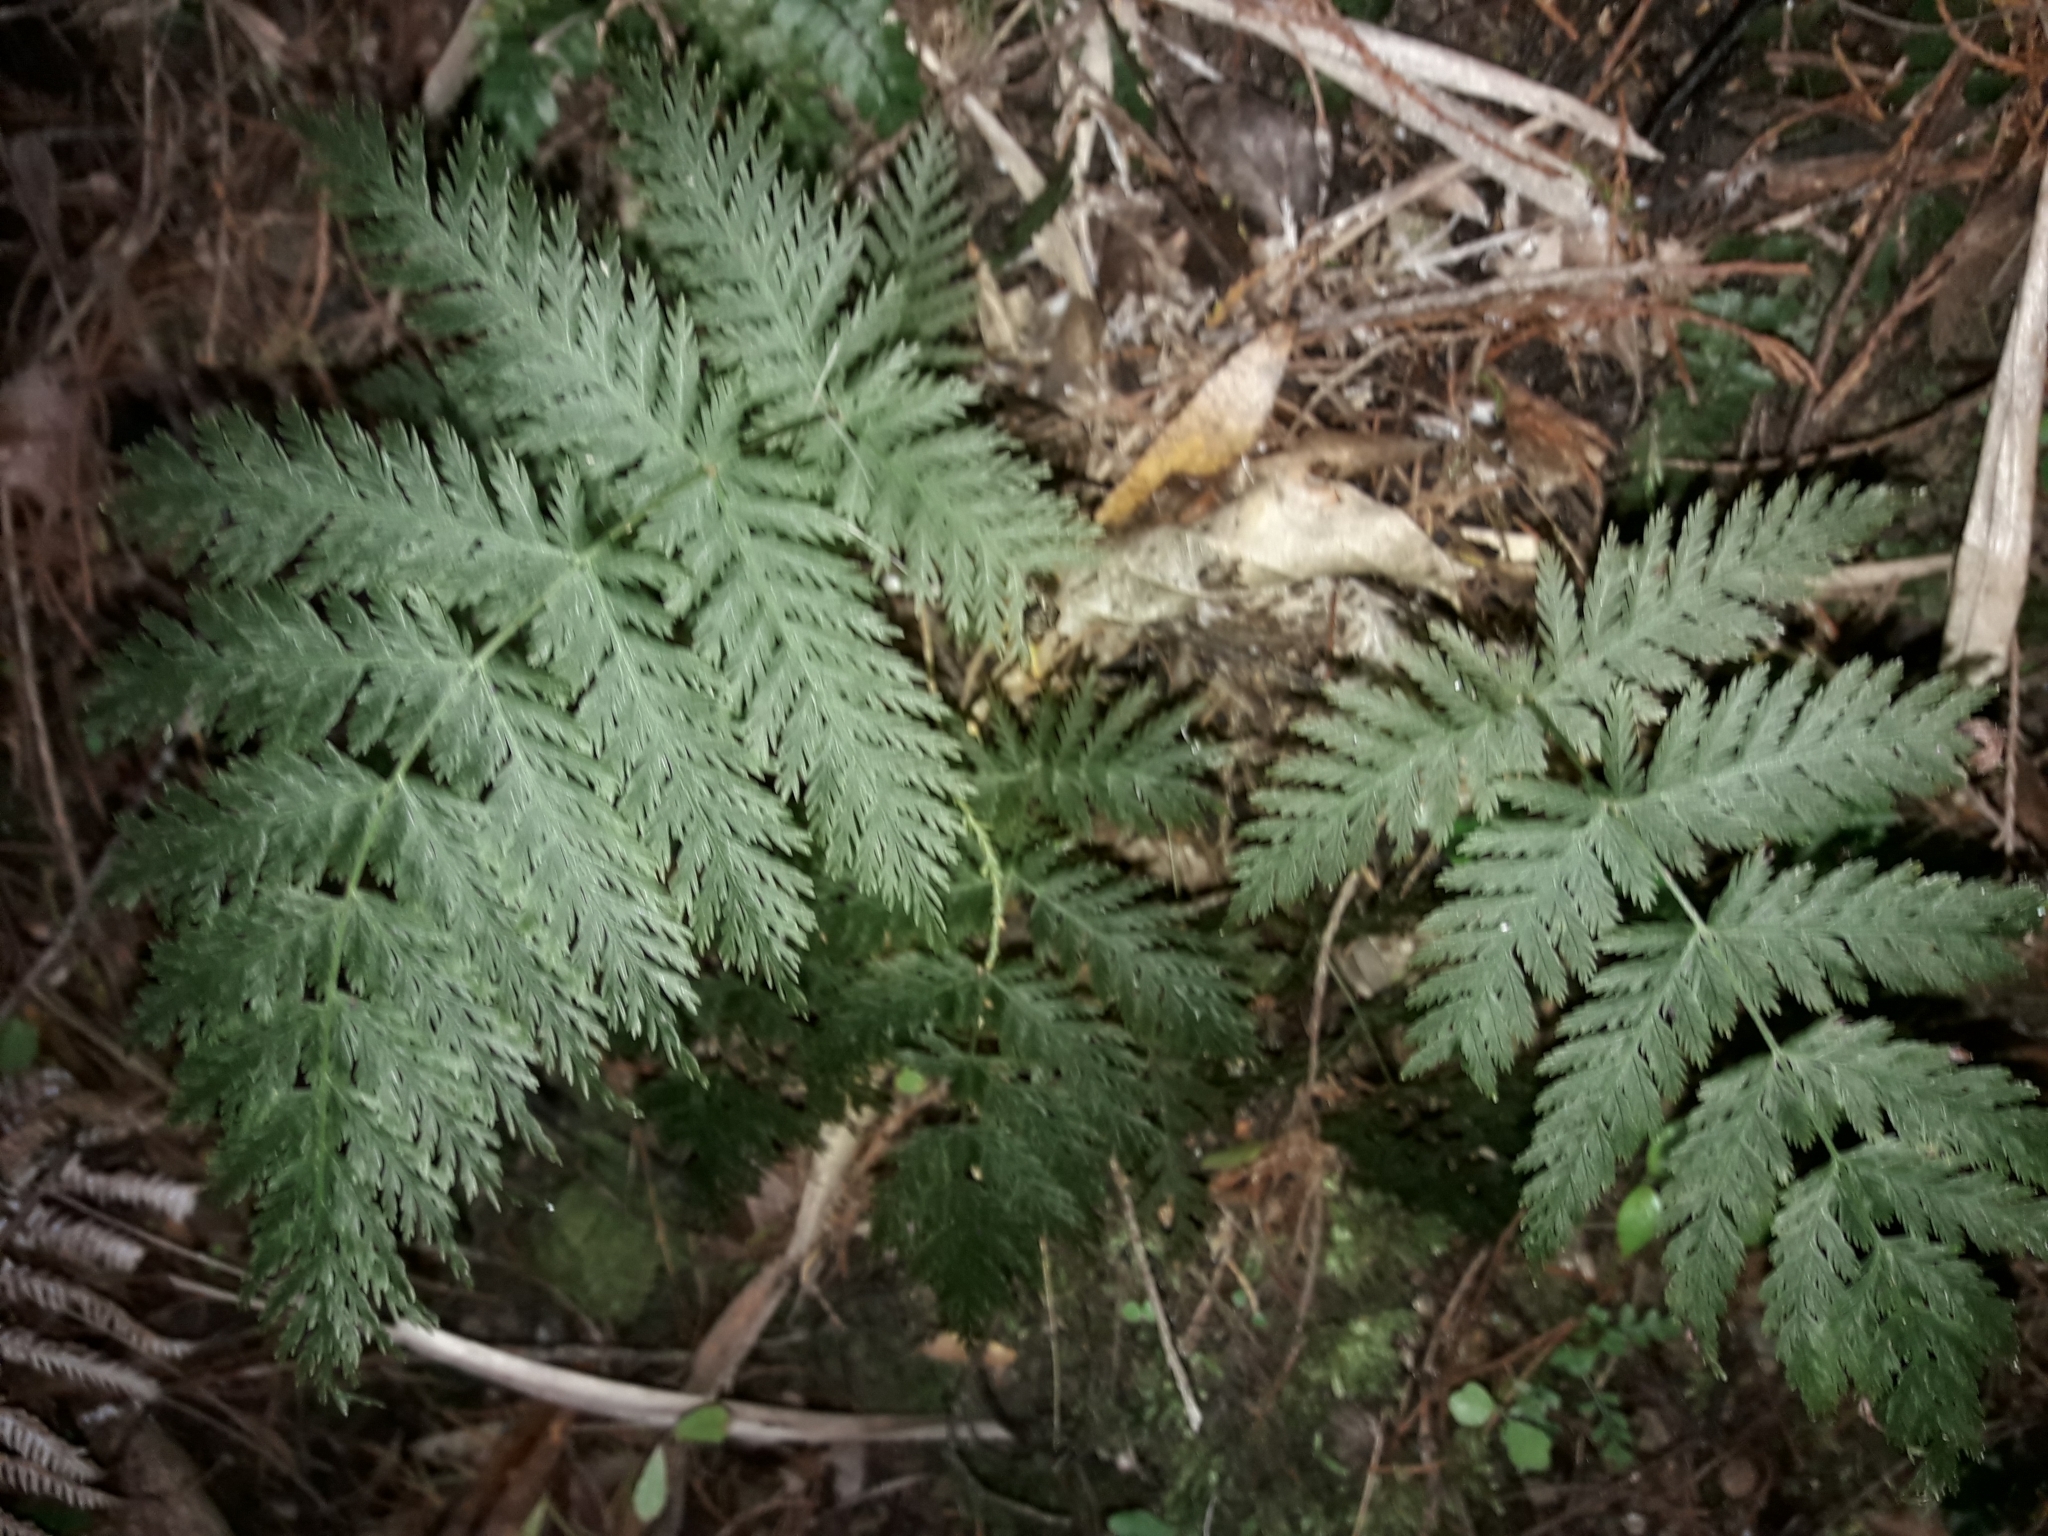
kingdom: Plantae
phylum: Tracheophyta
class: Polypodiopsida
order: Osmundales
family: Osmundaceae
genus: Leptopteris
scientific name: Leptopteris hymenophylloides
